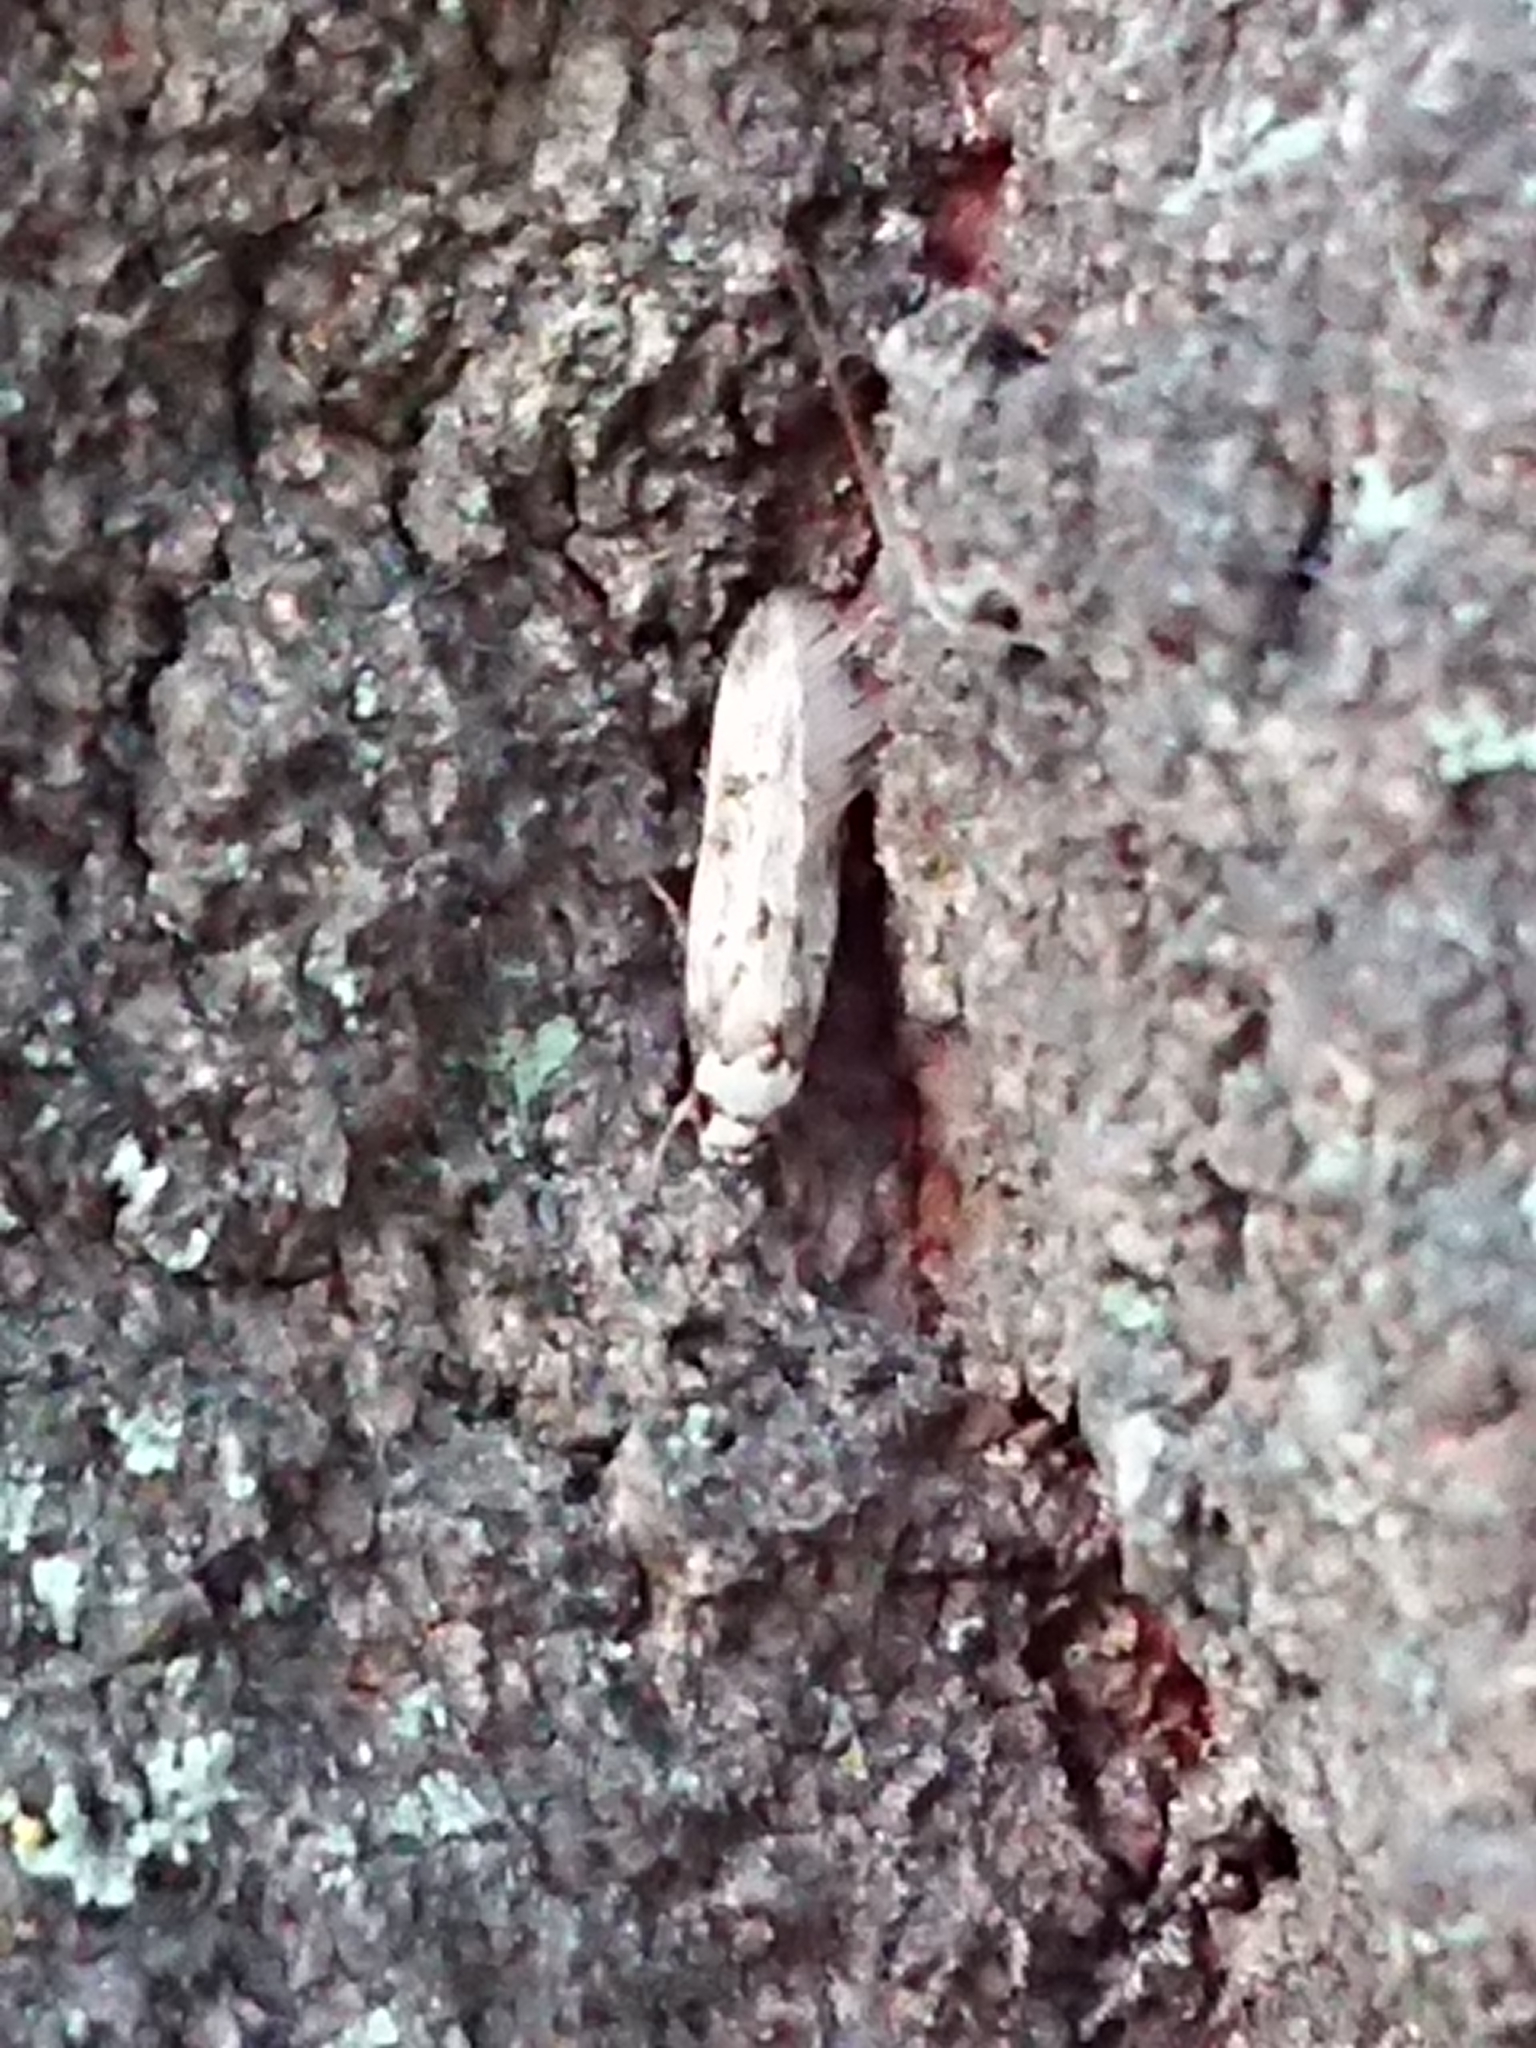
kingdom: Animalia
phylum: Arthropoda
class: Insecta
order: Lepidoptera
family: Oecophoridae
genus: Endrosis
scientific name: Endrosis sarcitrella
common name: White-shouldered house moth
